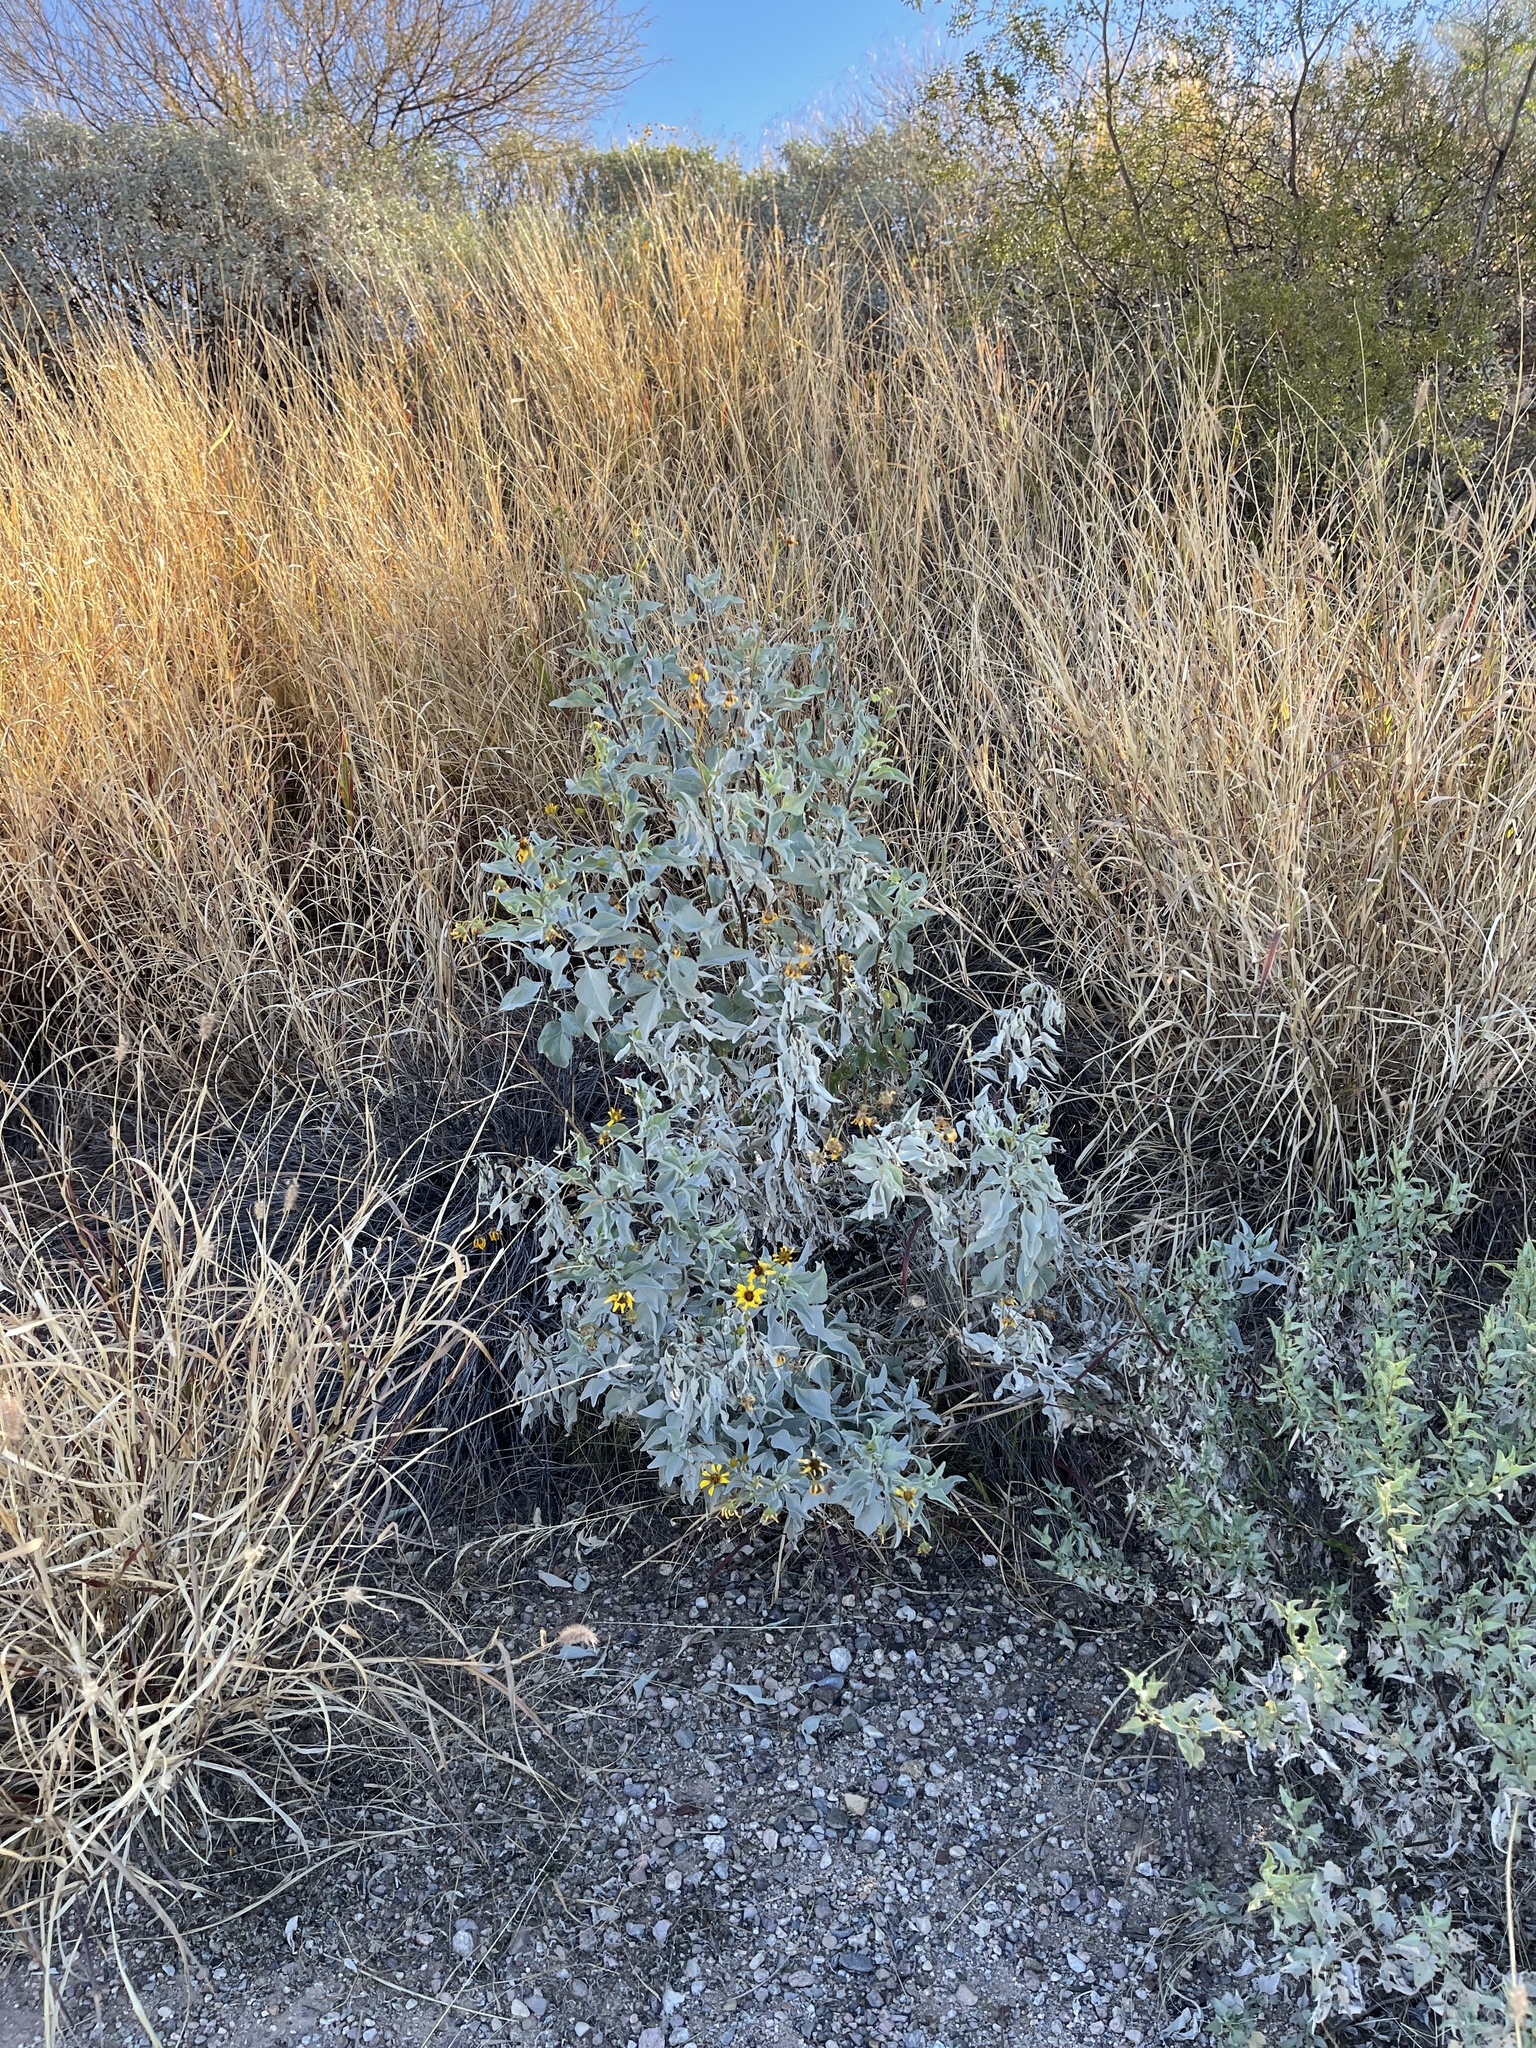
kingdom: Plantae
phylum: Tracheophyta
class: Magnoliopsida
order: Asterales
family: Asteraceae
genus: Encelia
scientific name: Encelia farinosa
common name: Brittlebush
